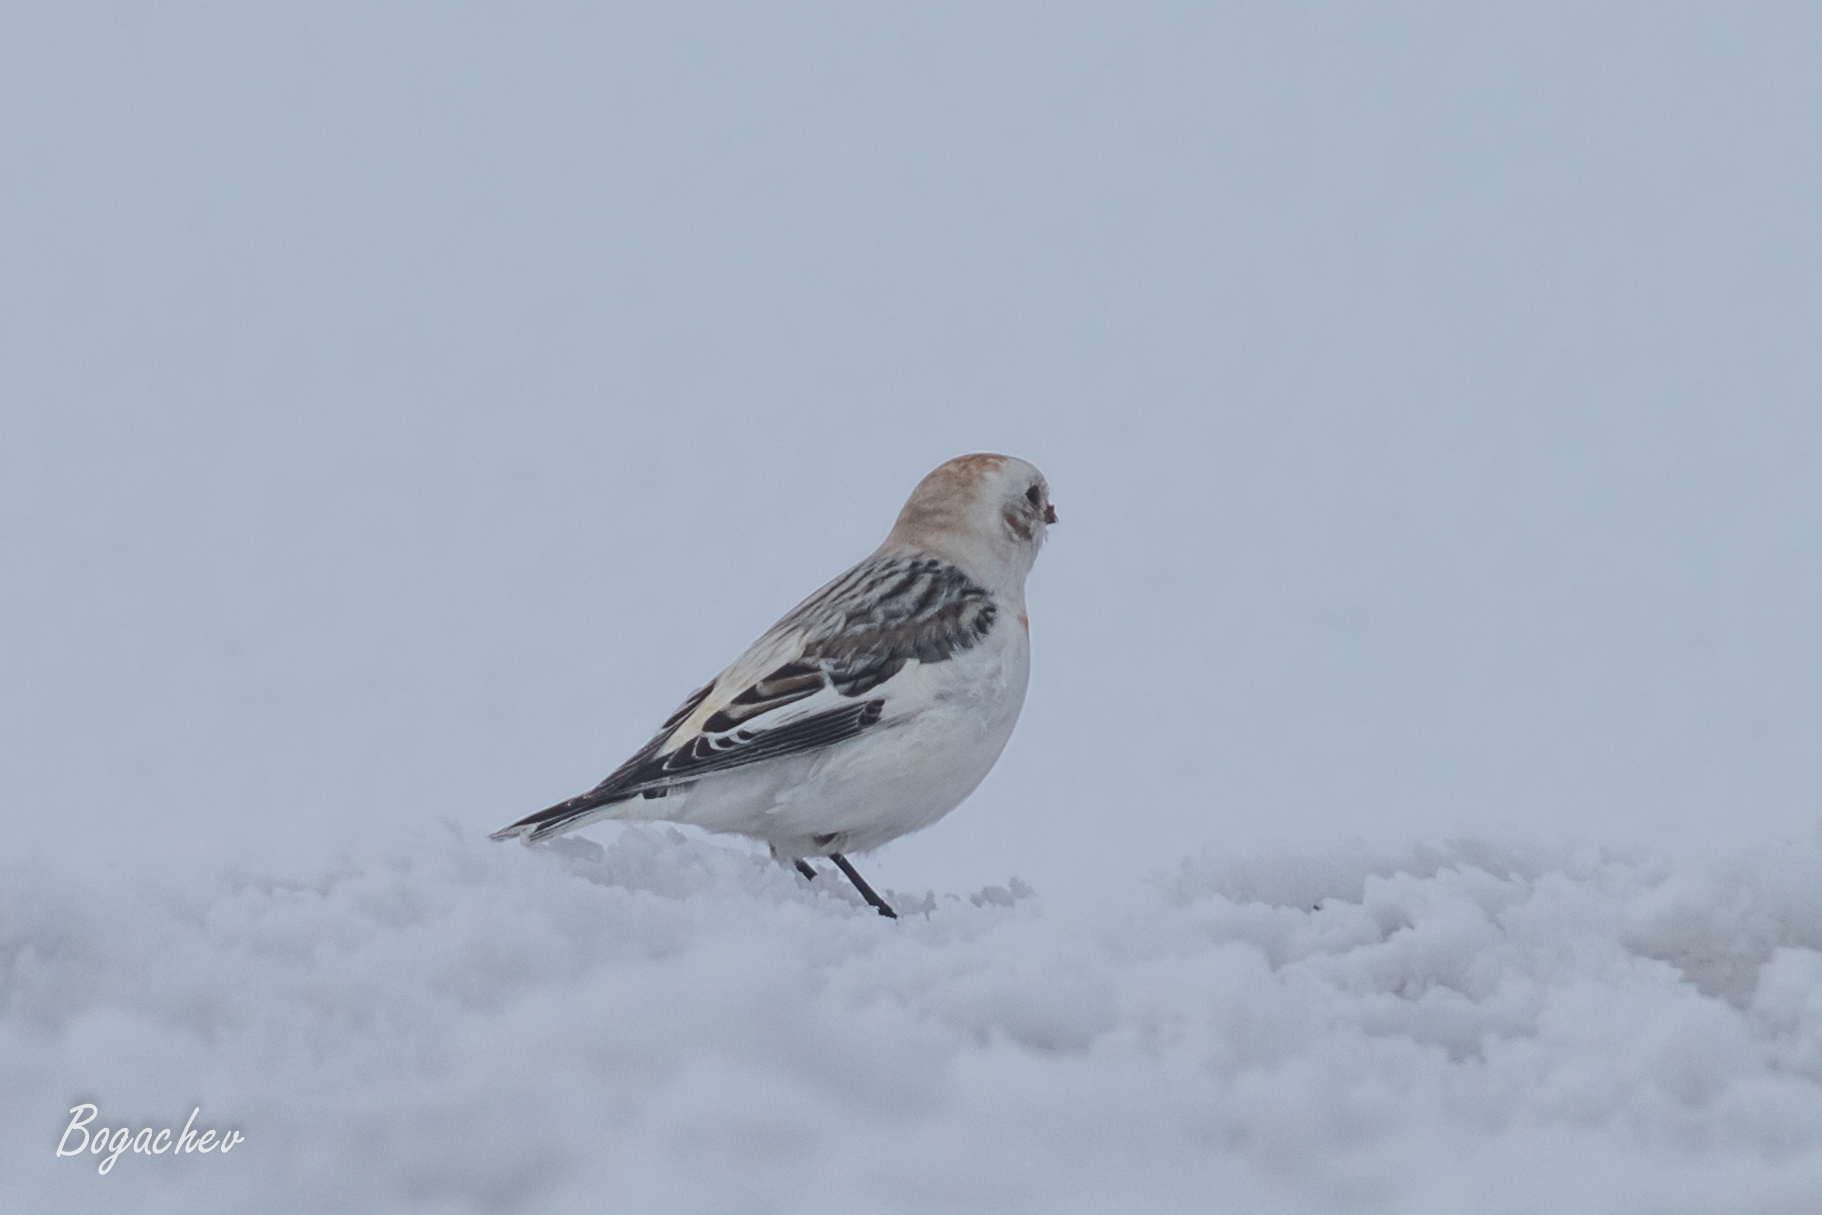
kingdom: Animalia
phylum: Chordata
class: Aves
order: Passeriformes
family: Calcariidae
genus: Plectrophenax
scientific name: Plectrophenax nivalis
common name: Snow bunting
